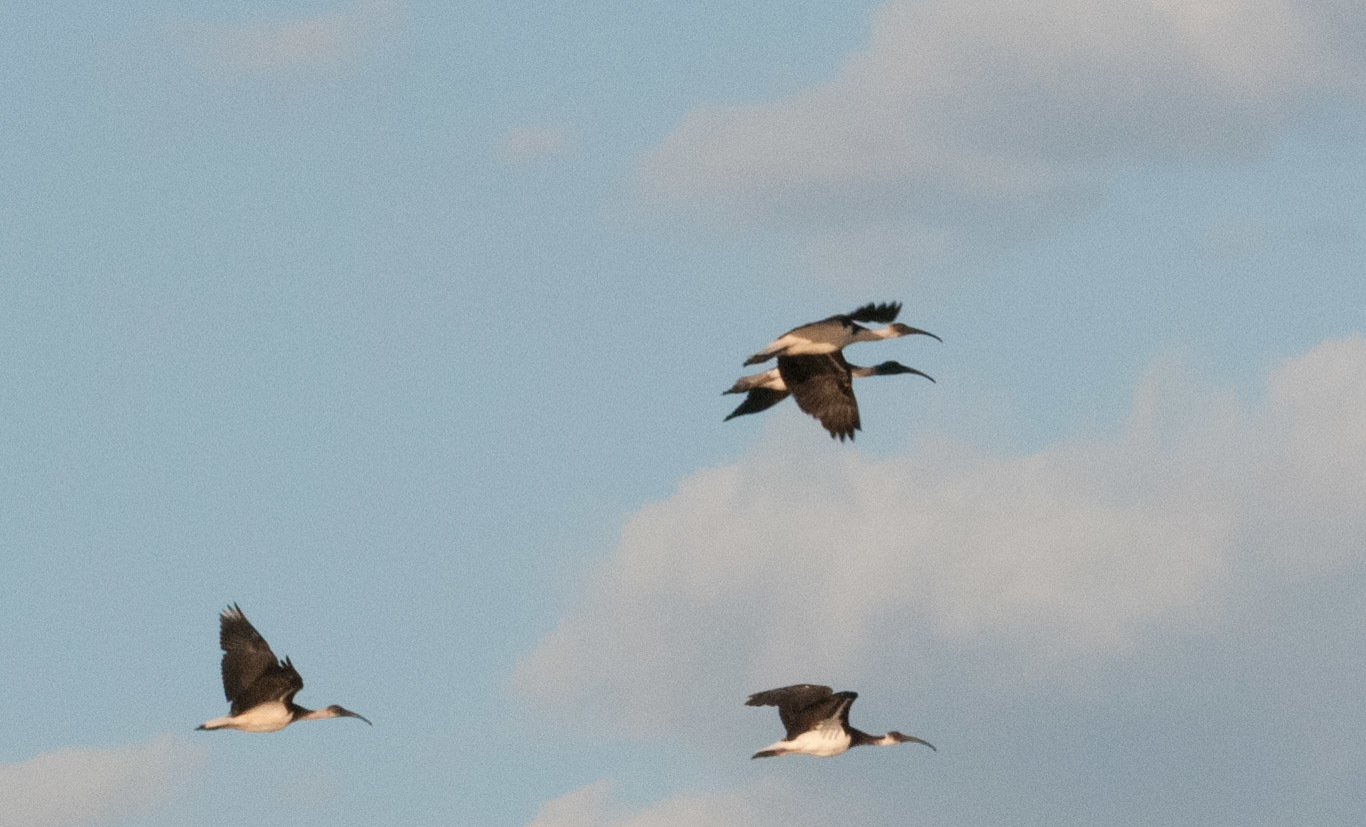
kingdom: Animalia
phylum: Chordata
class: Aves
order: Pelecaniformes
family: Threskiornithidae
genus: Threskiornis
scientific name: Threskiornis spinicollis
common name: Straw-necked ibis
